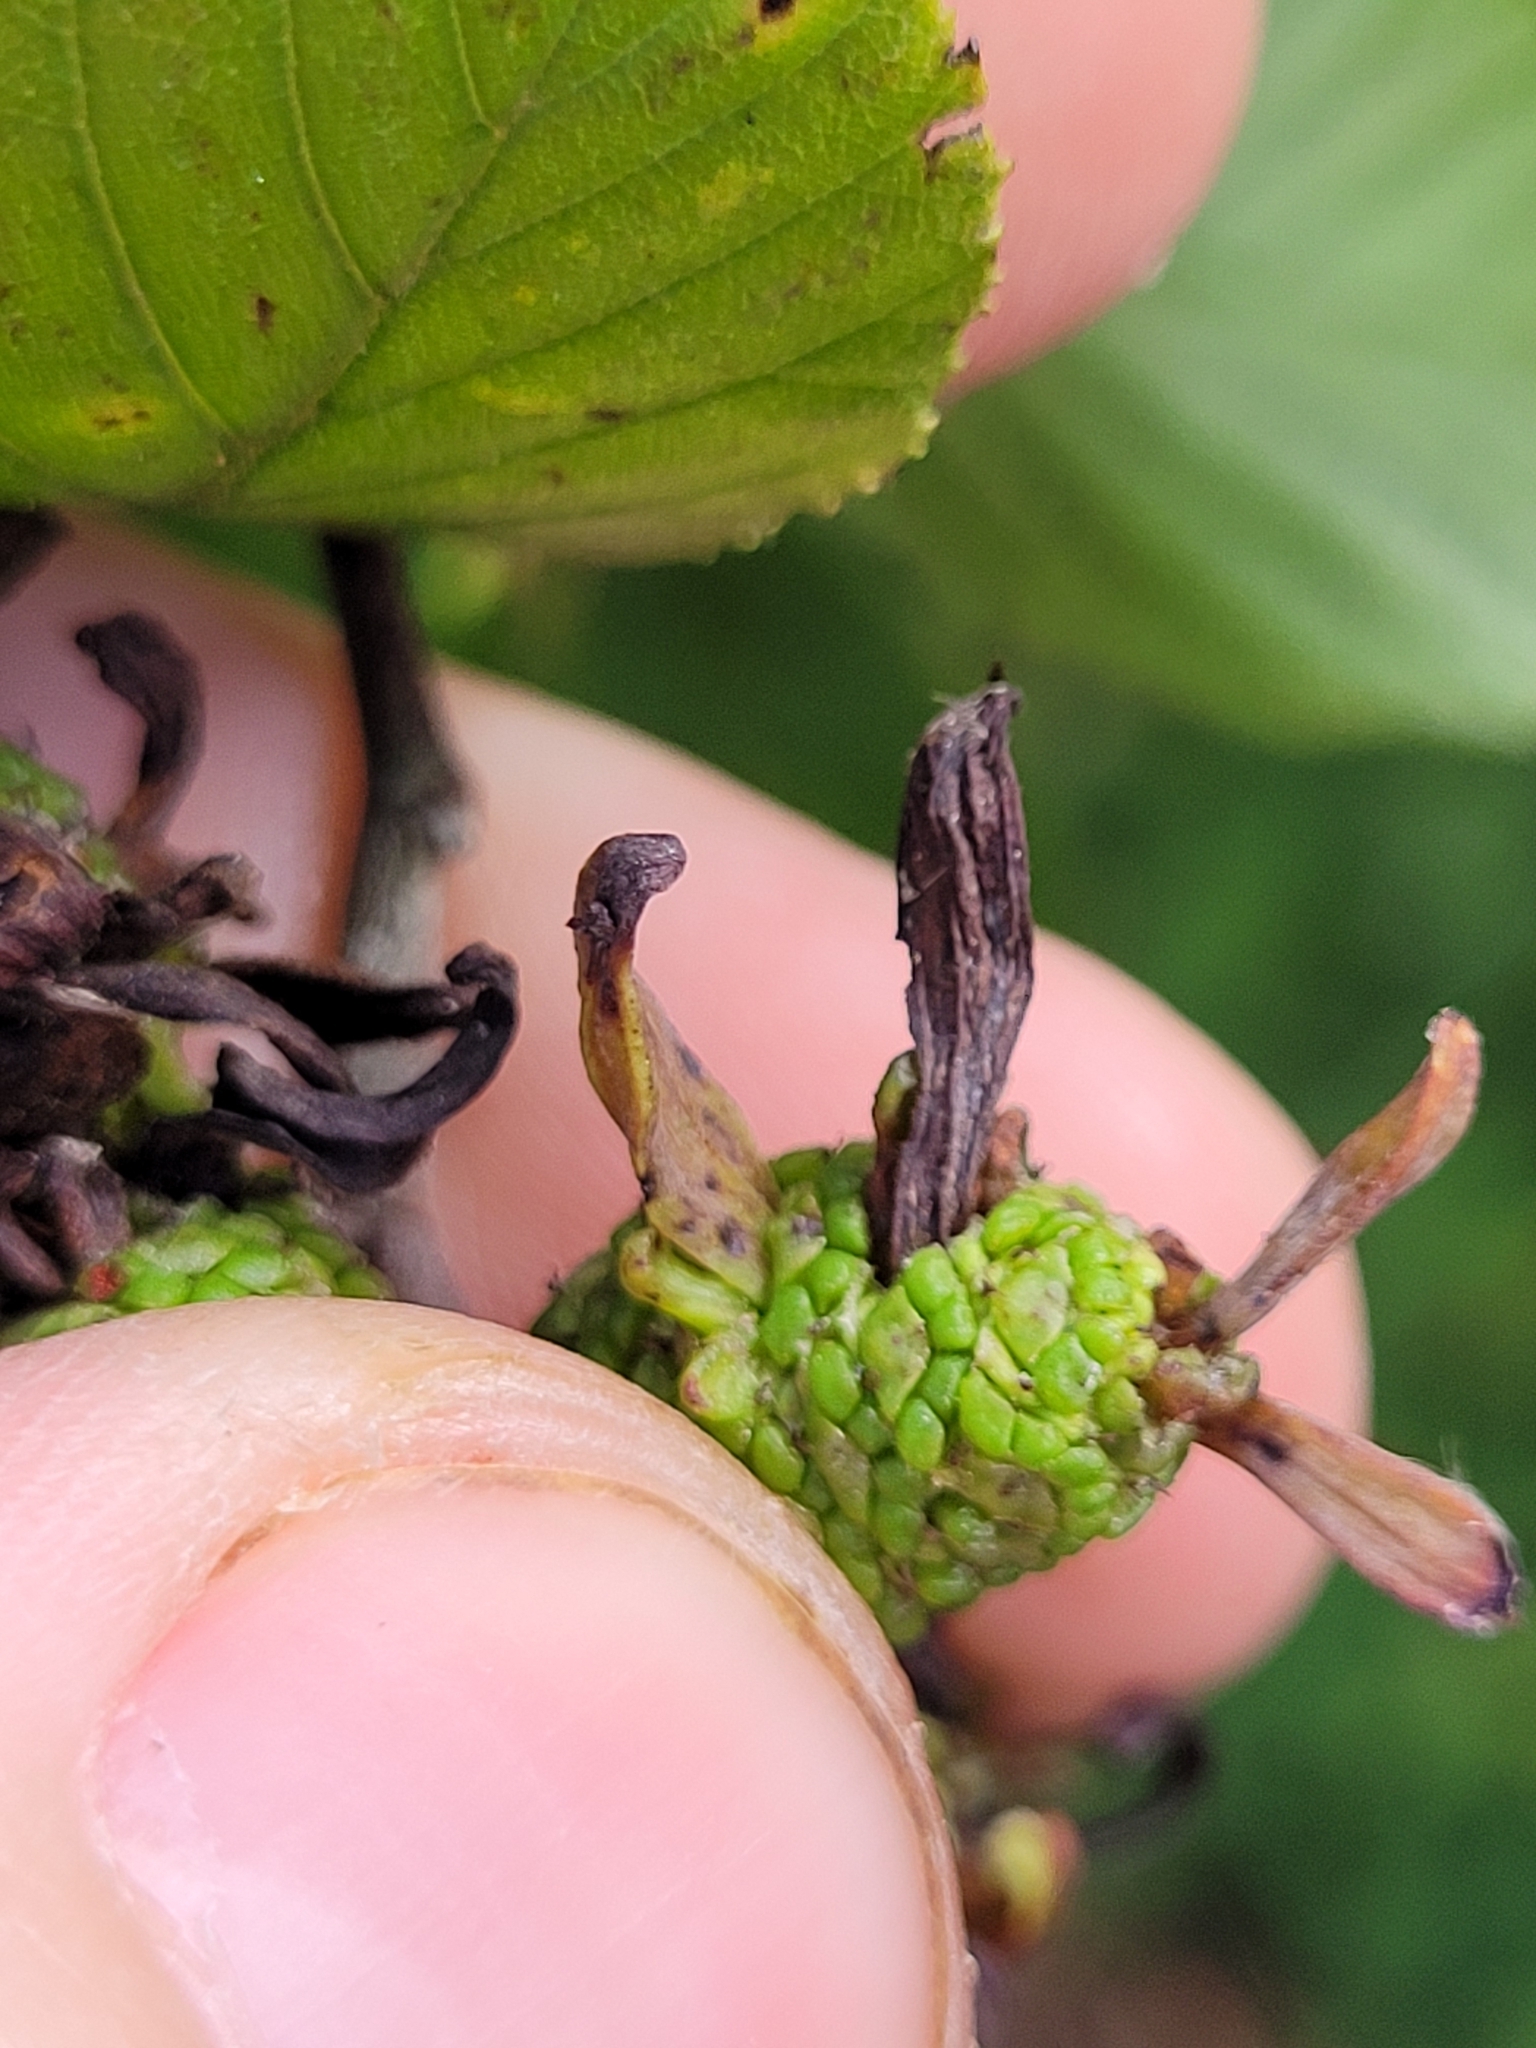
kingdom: Fungi
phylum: Ascomycota
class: Taphrinomycetes
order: Taphrinales
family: Taphrinaceae
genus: Taphrina
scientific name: Taphrina robinsoniana
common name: Eastern american alder tongue gall fungus
